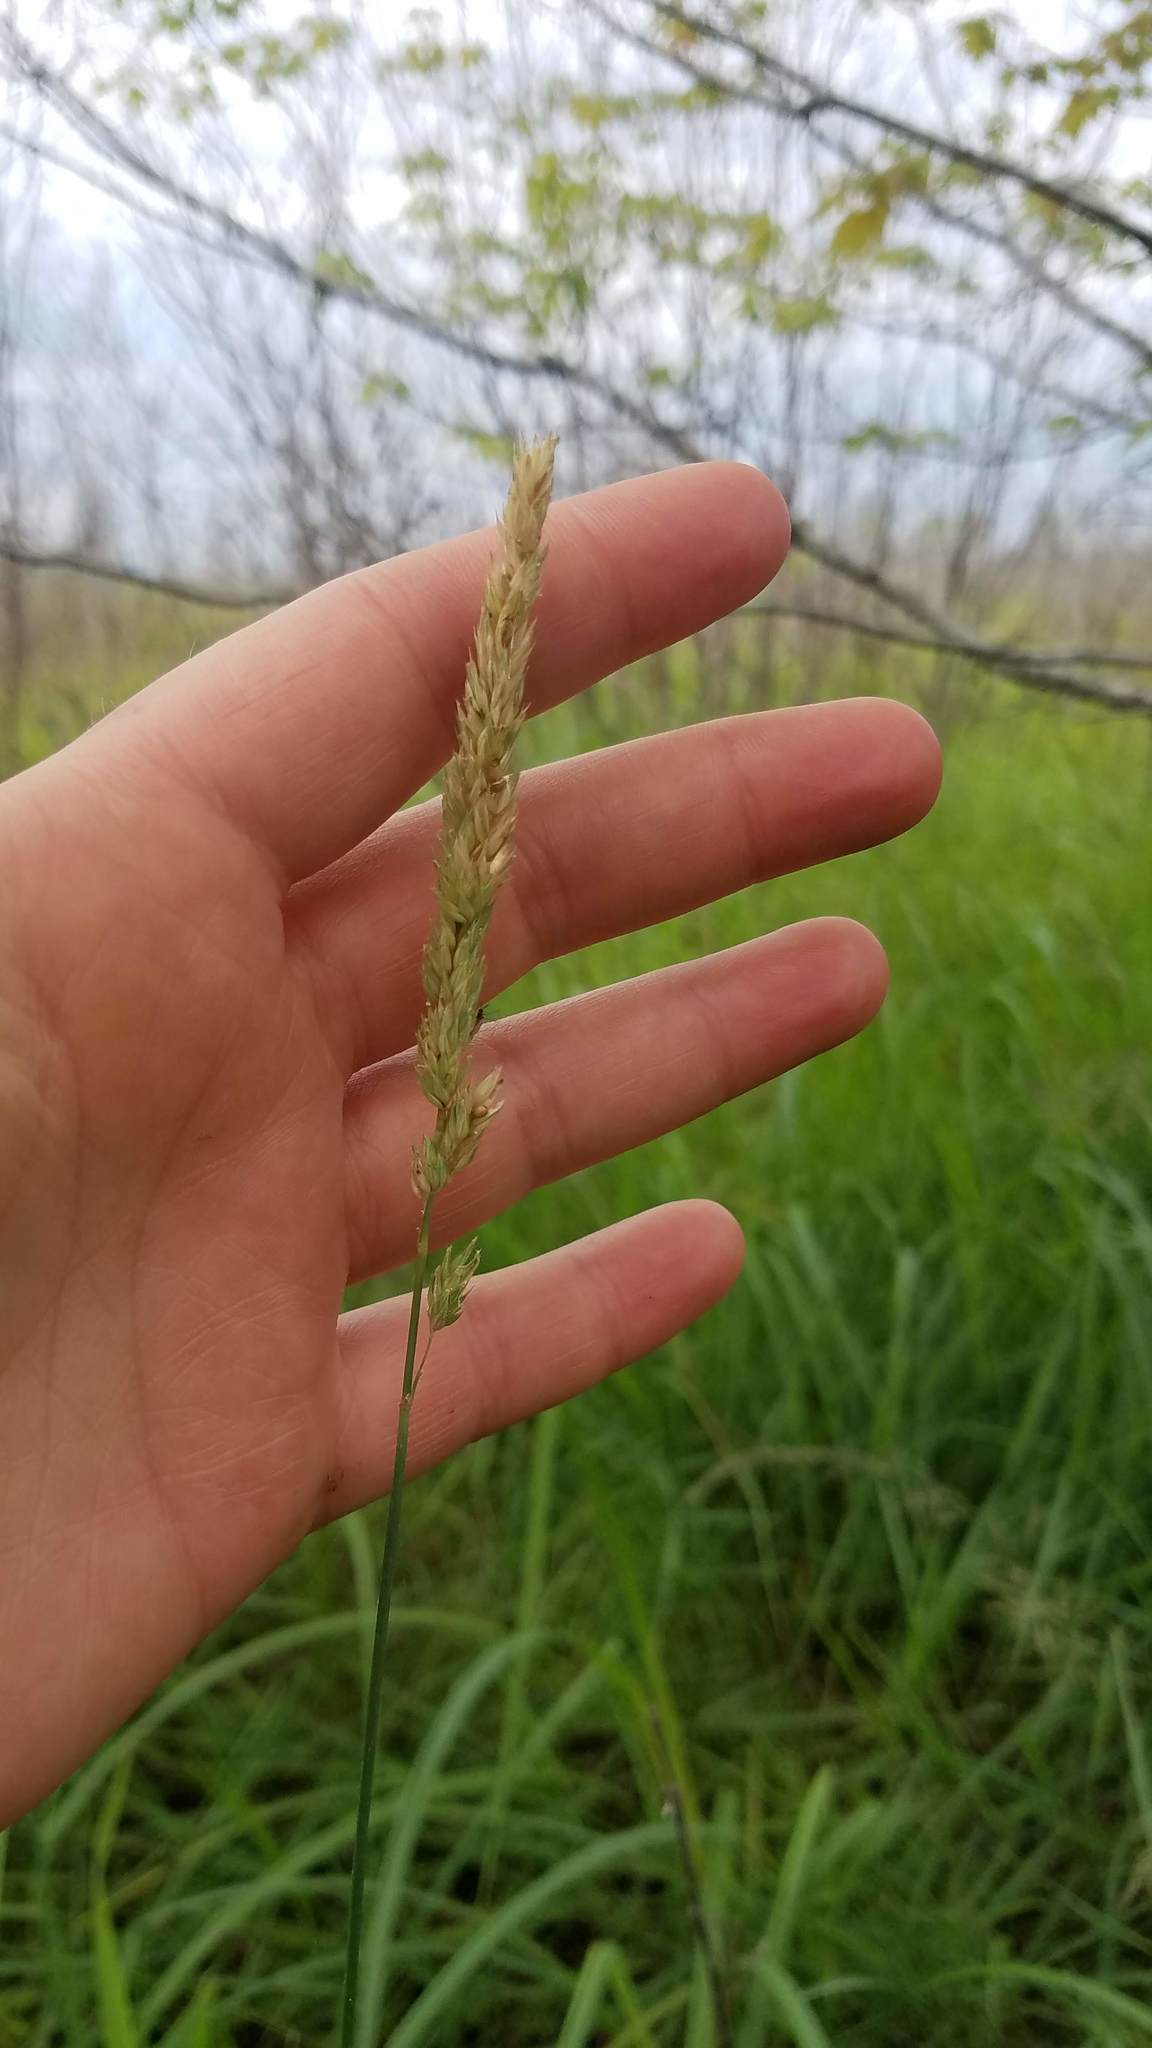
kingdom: Plantae
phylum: Tracheophyta
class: Liliopsida
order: Poales
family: Poaceae
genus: Phalaris
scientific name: Phalaris arundinacea
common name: Reed canary-grass
